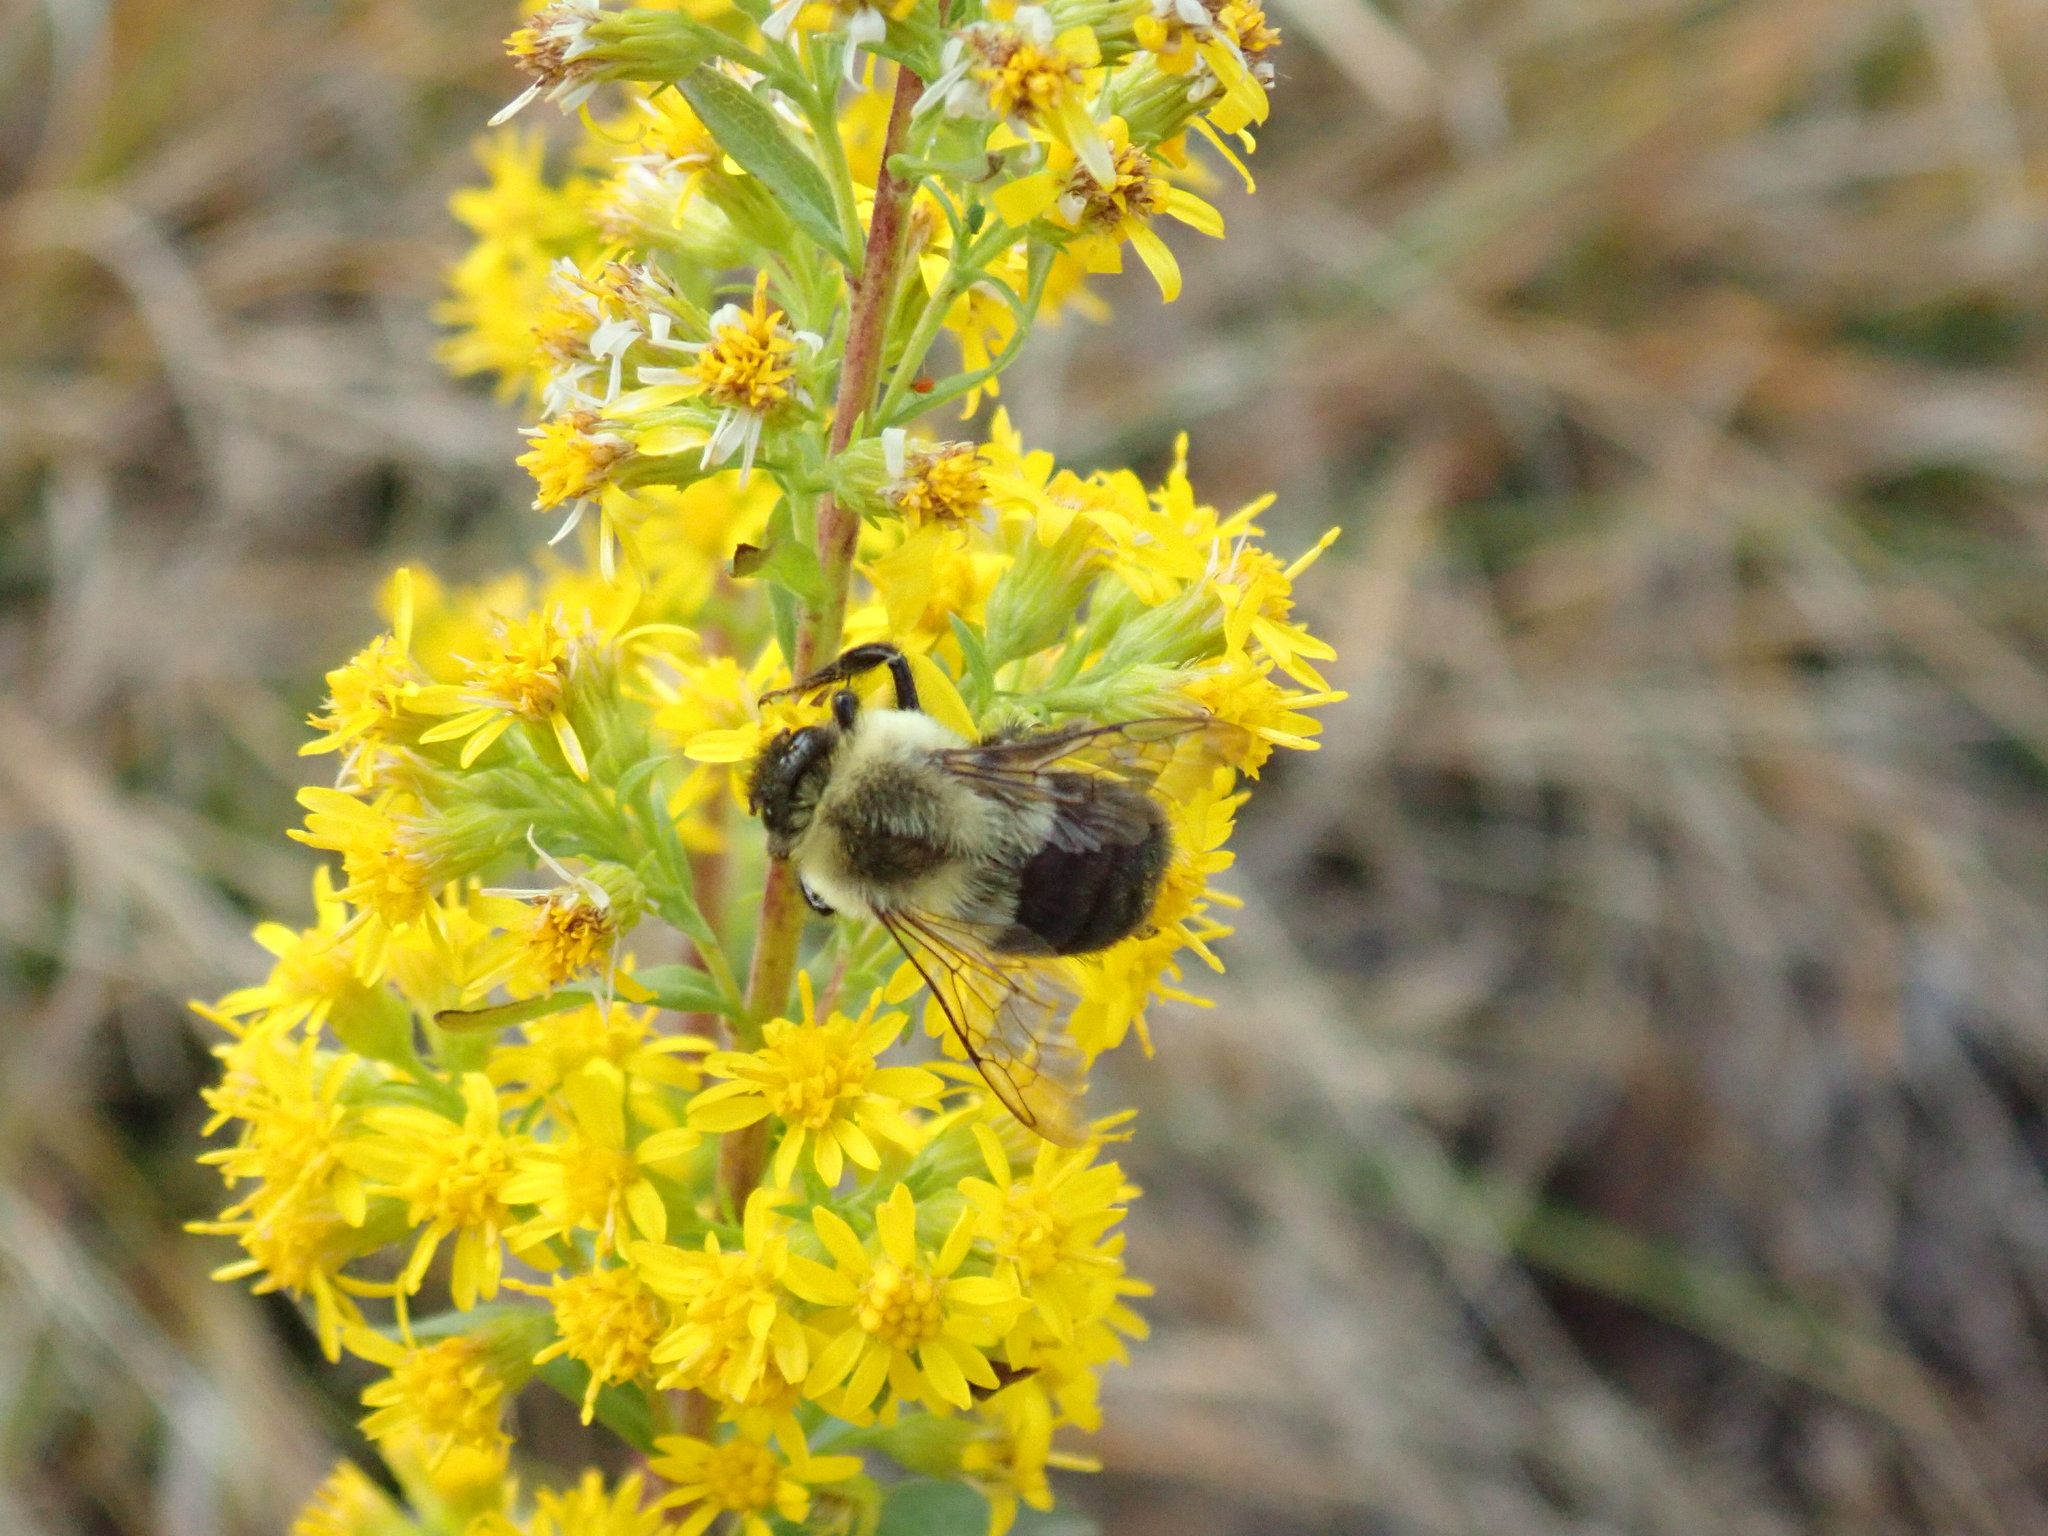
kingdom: Animalia
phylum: Arthropoda
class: Insecta
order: Hymenoptera
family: Apidae
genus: Bombus
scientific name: Bombus impatiens
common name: Common eastern bumble bee
